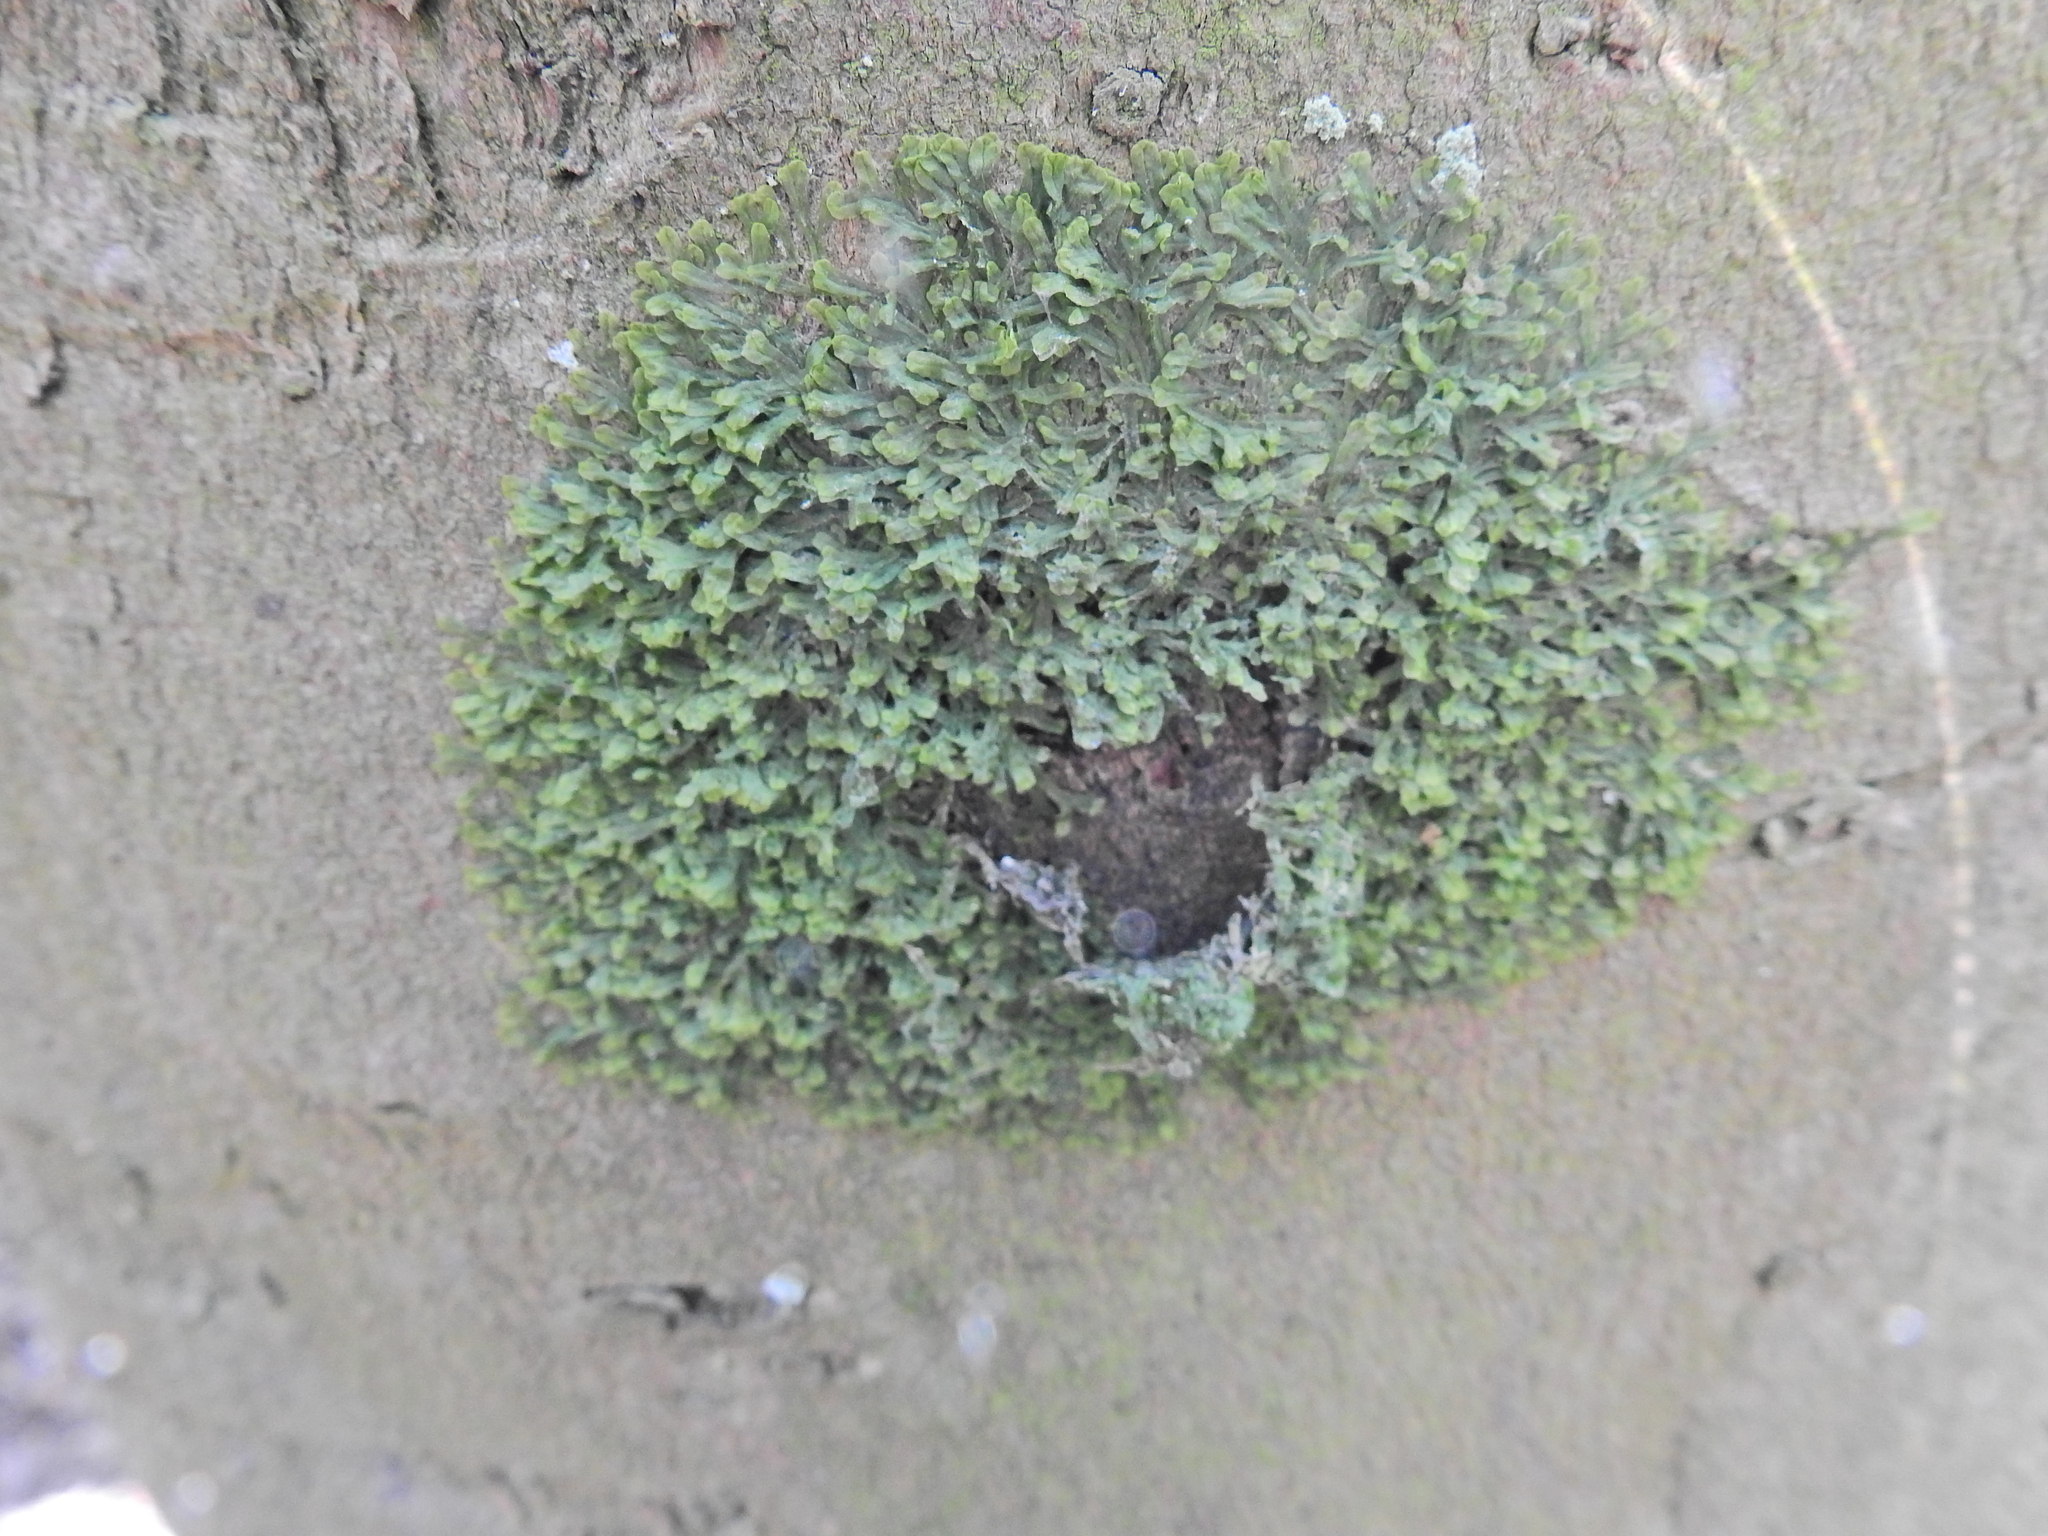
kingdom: Plantae
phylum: Marchantiophyta
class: Jungermanniopsida
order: Metzgeriales
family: Metzgeriaceae
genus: Metzgeria
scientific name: Metzgeria furcata
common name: Forked veilwort
